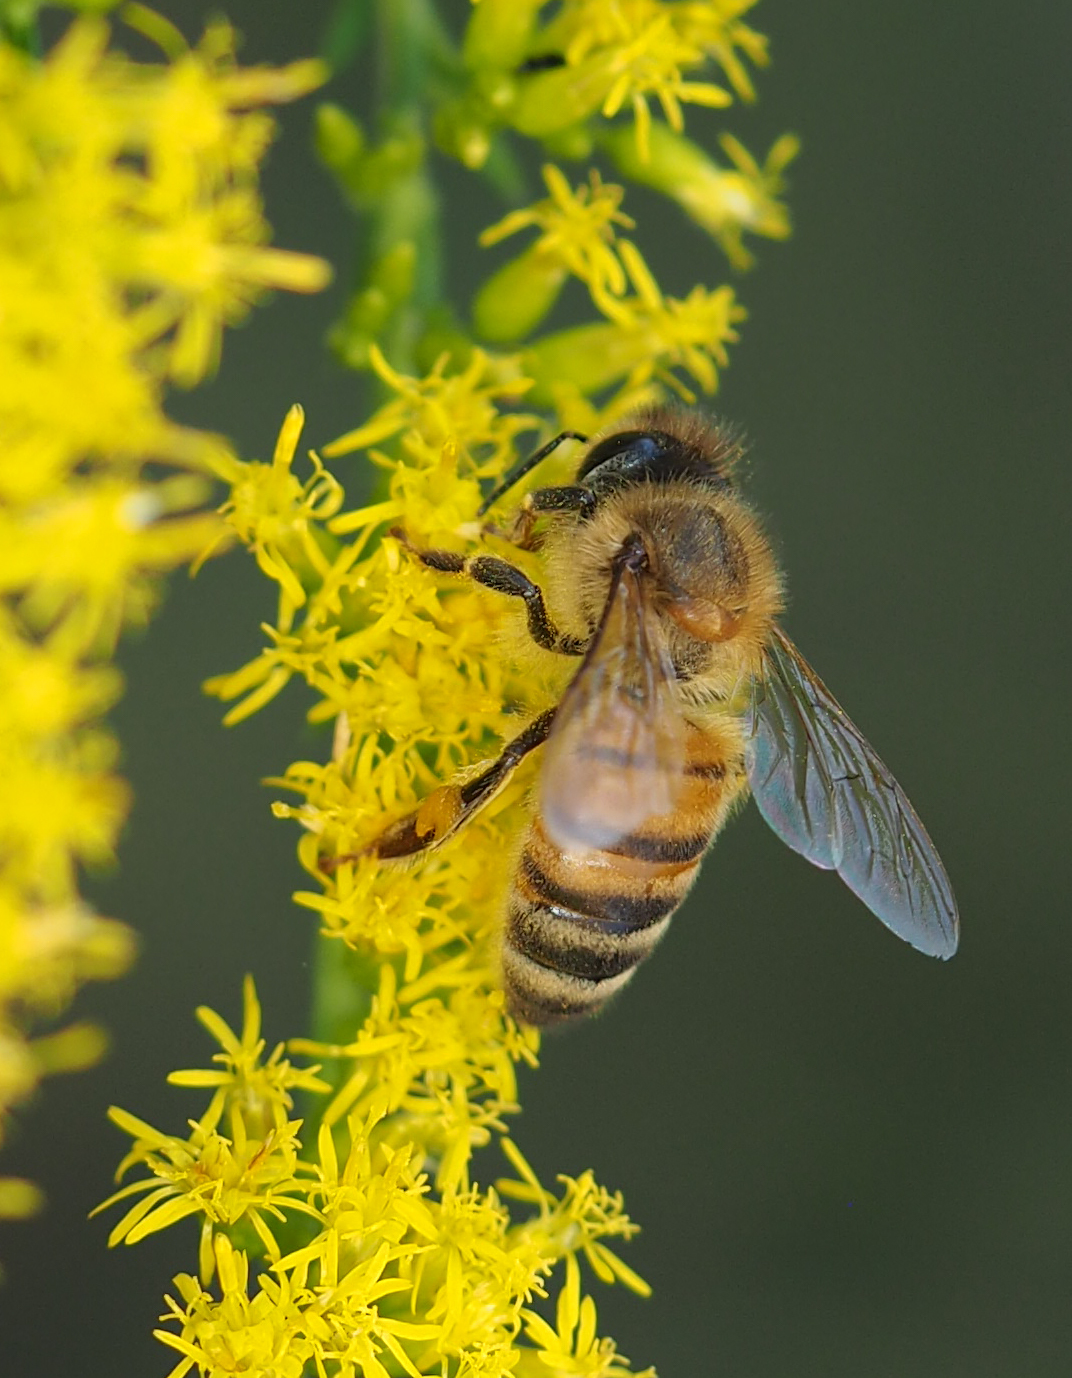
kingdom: Animalia
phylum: Arthropoda
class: Insecta
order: Hymenoptera
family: Apidae
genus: Apis
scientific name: Apis mellifera
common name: Honey bee
